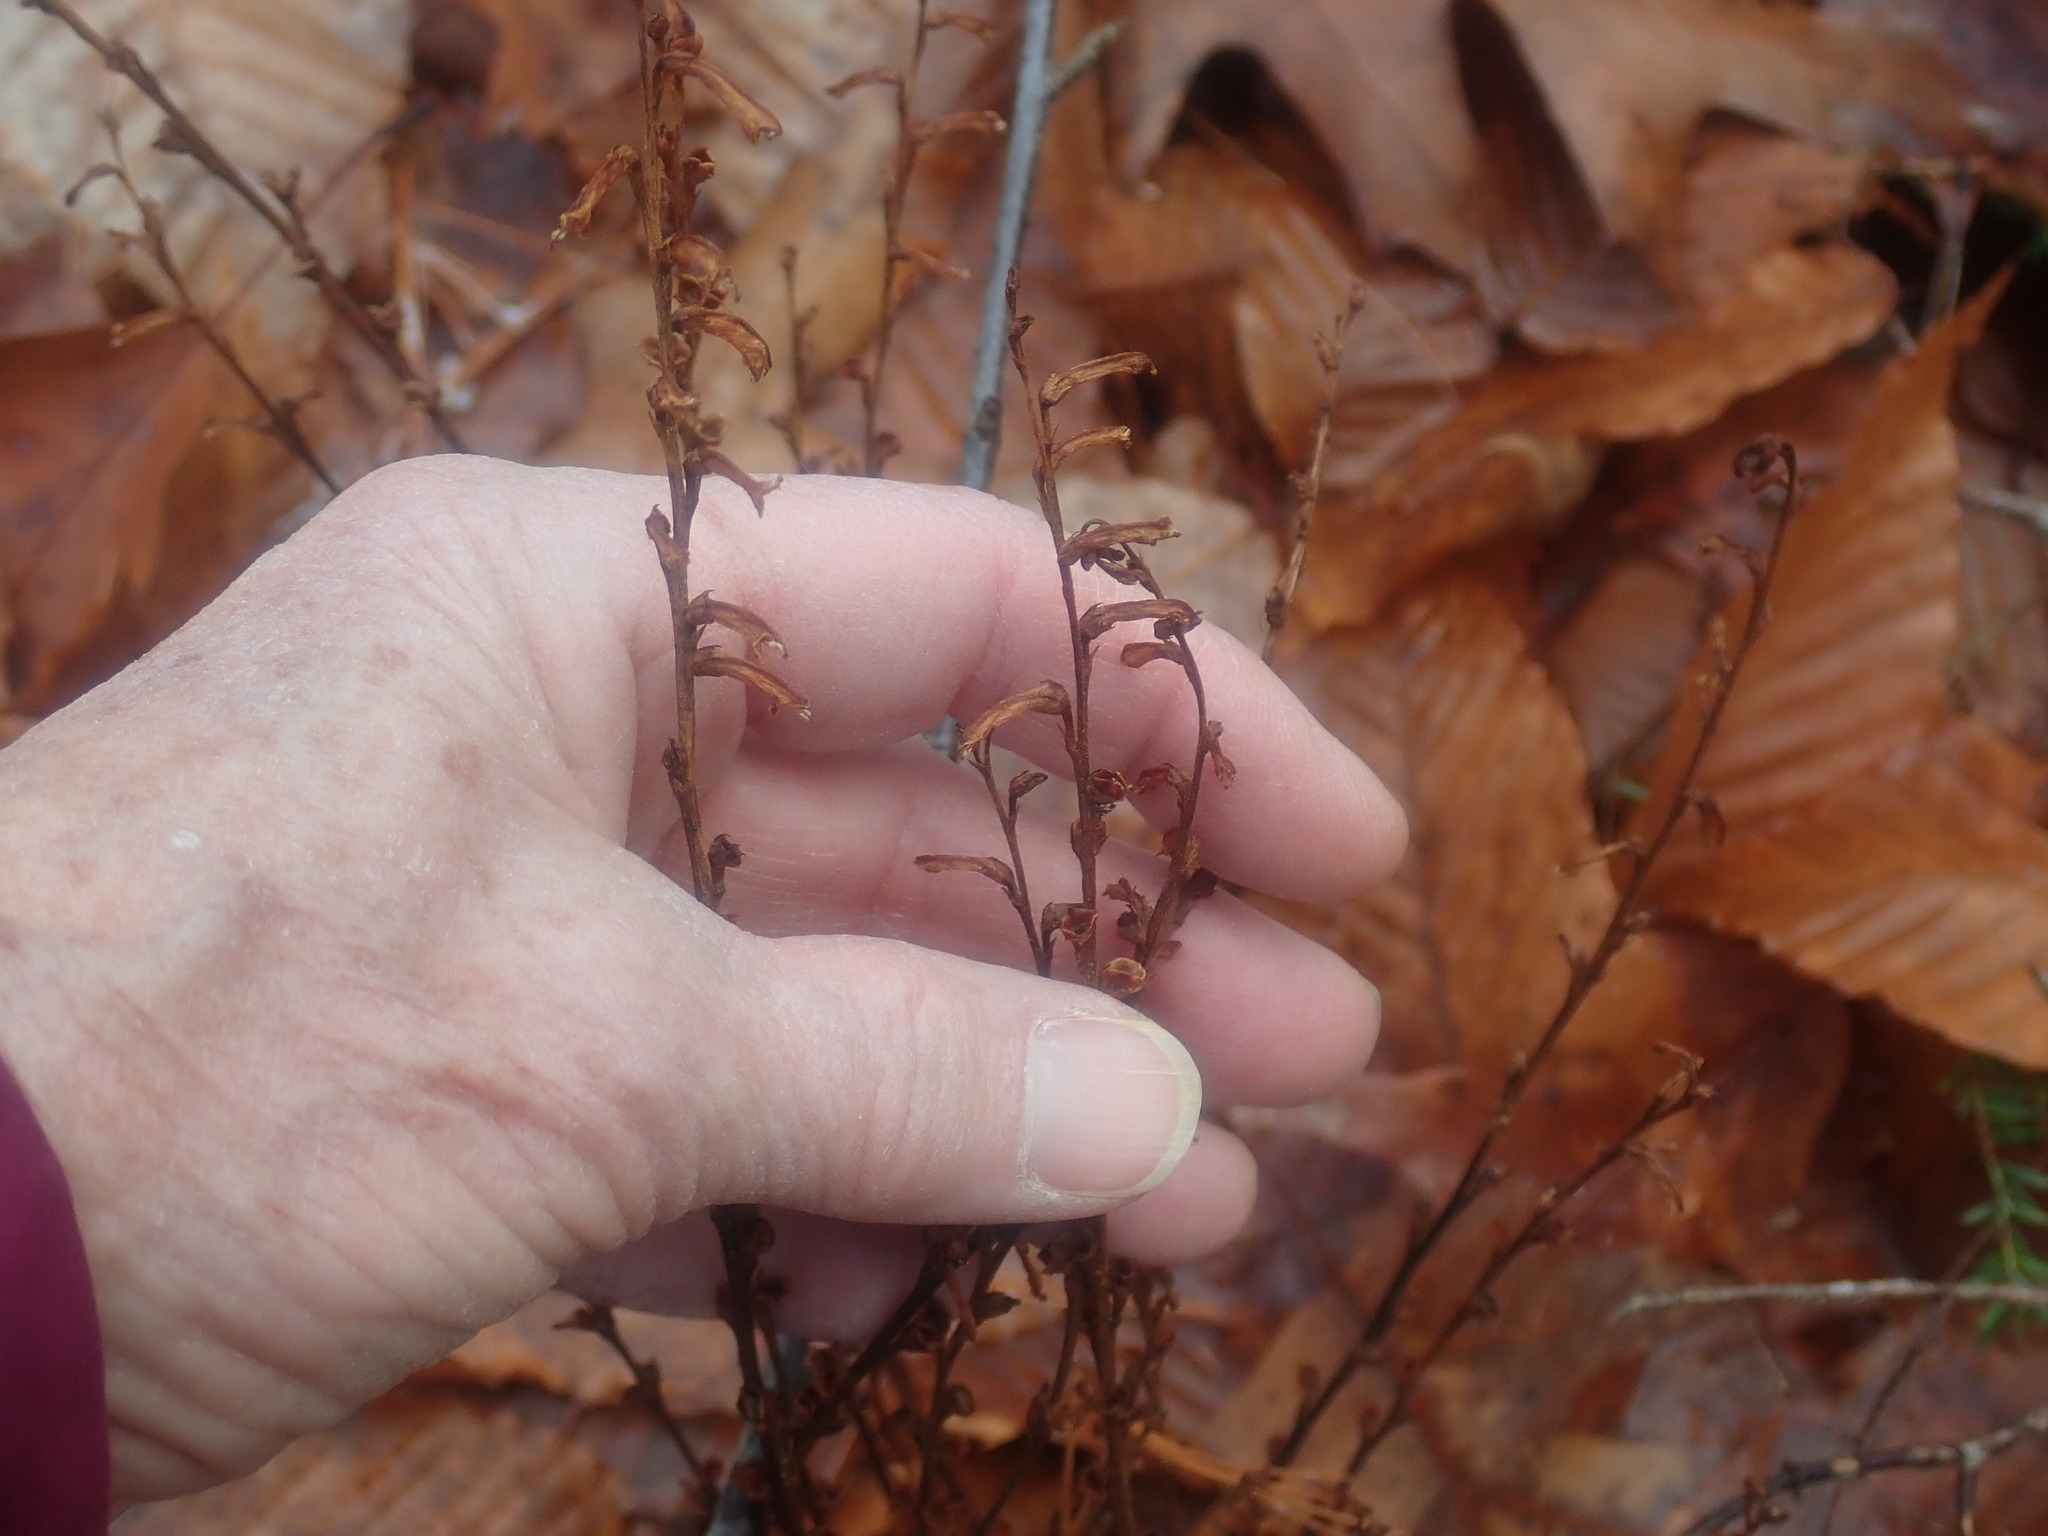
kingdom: Plantae
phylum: Tracheophyta
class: Magnoliopsida
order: Lamiales
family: Orobanchaceae
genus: Epifagus
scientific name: Epifagus virginiana
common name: Beechdrops
